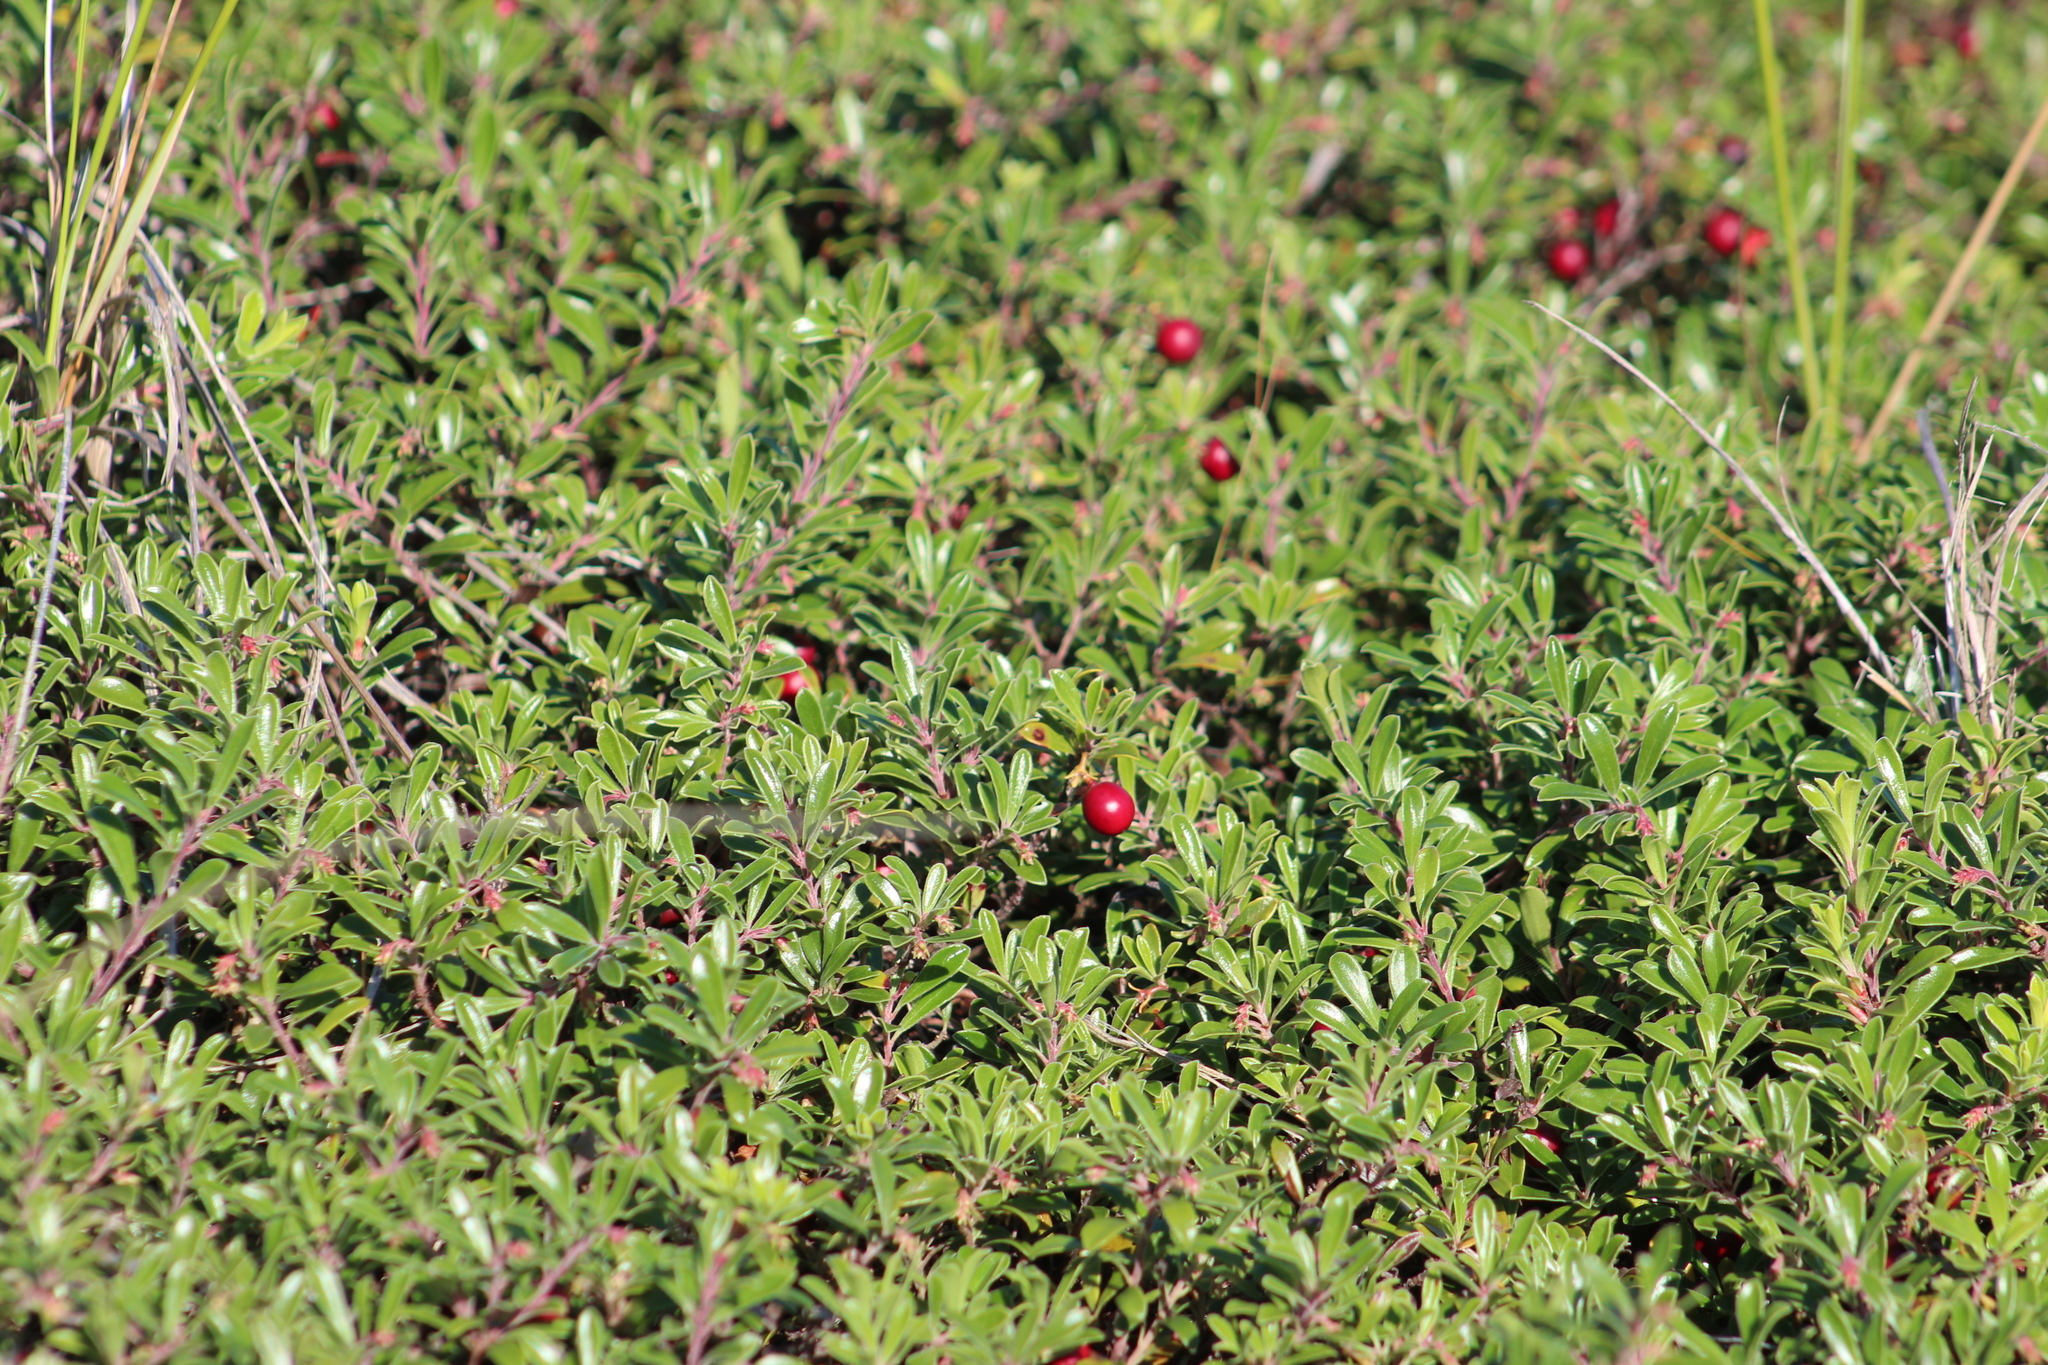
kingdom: Plantae
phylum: Tracheophyta
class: Magnoliopsida
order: Ericales
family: Ericaceae
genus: Arctostaphylos
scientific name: Arctostaphylos uva-ursi
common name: Bearberry
